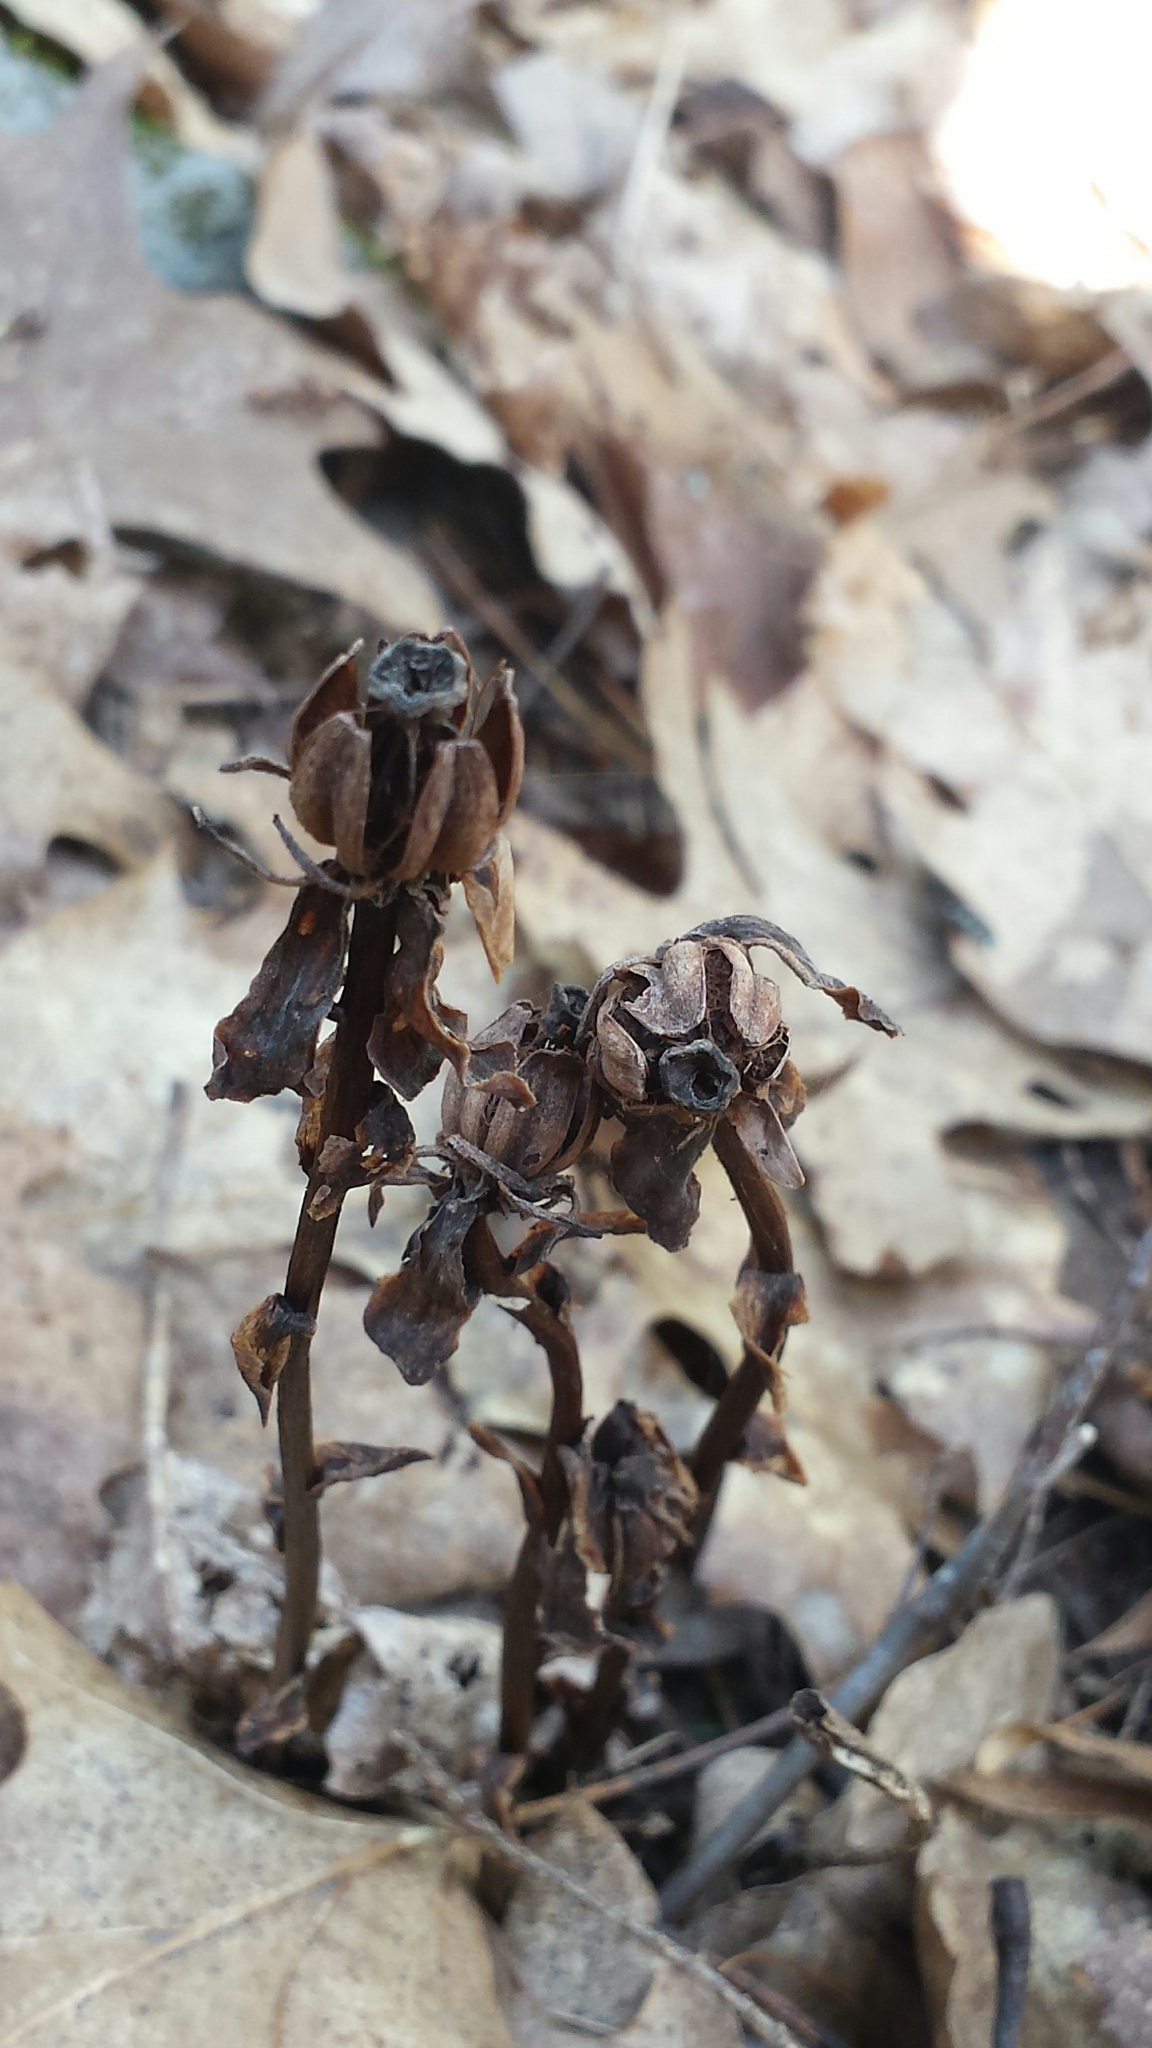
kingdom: Plantae
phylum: Tracheophyta
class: Magnoliopsida
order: Ericales
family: Ericaceae
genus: Monotropa
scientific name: Monotropa uniflora
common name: Convulsion root
